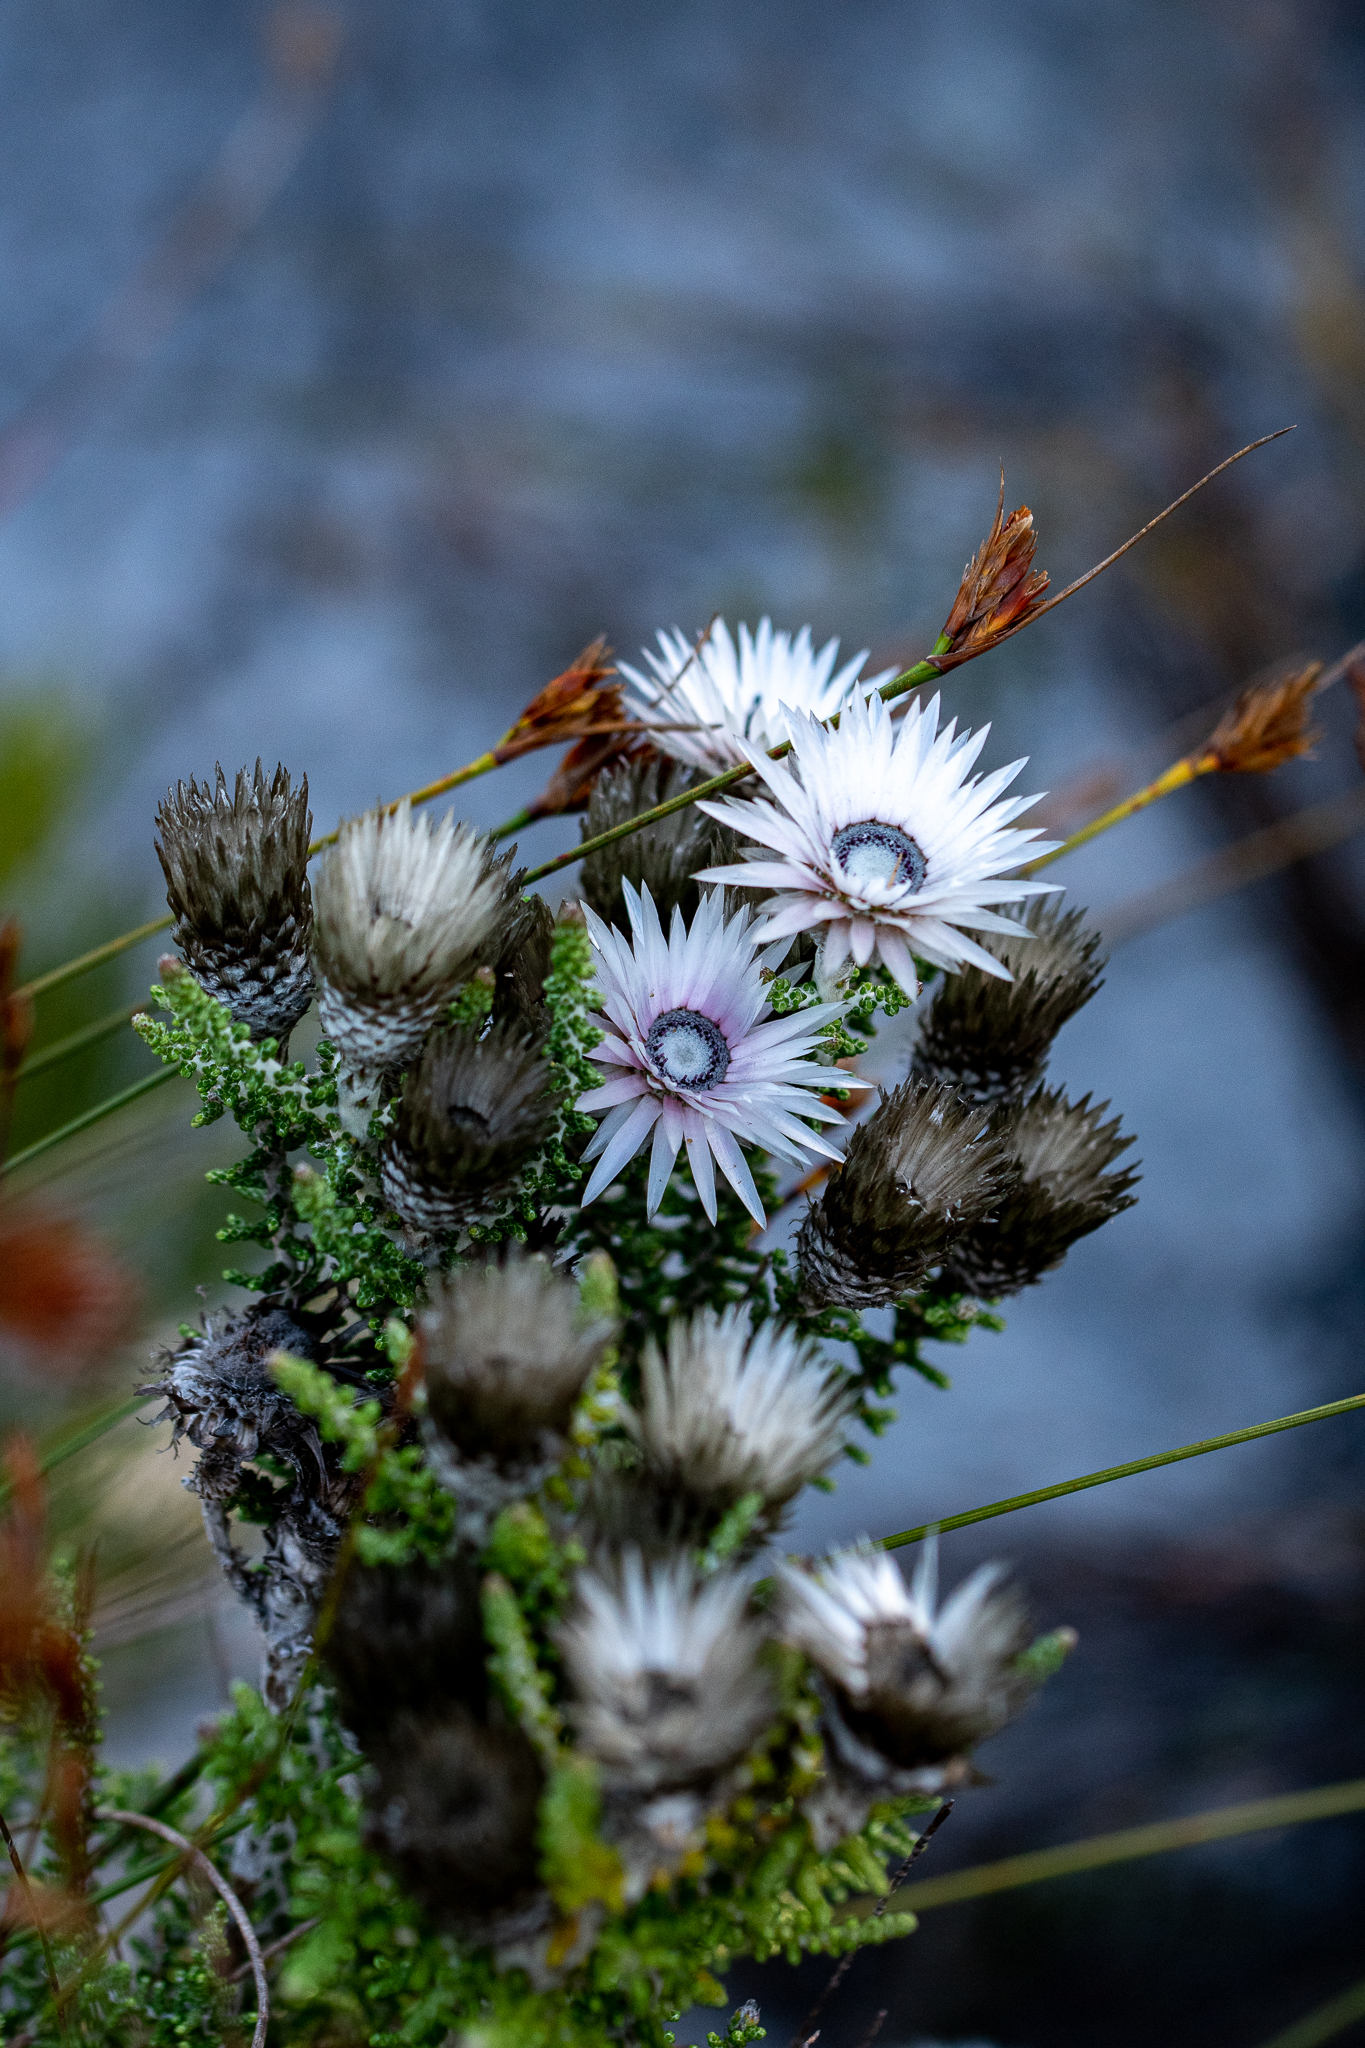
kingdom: Plantae
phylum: Tracheophyta
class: Magnoliopsida
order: Asterales
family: Asteraceae
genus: Phaenocoma
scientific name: Phaenocoma prolifera
